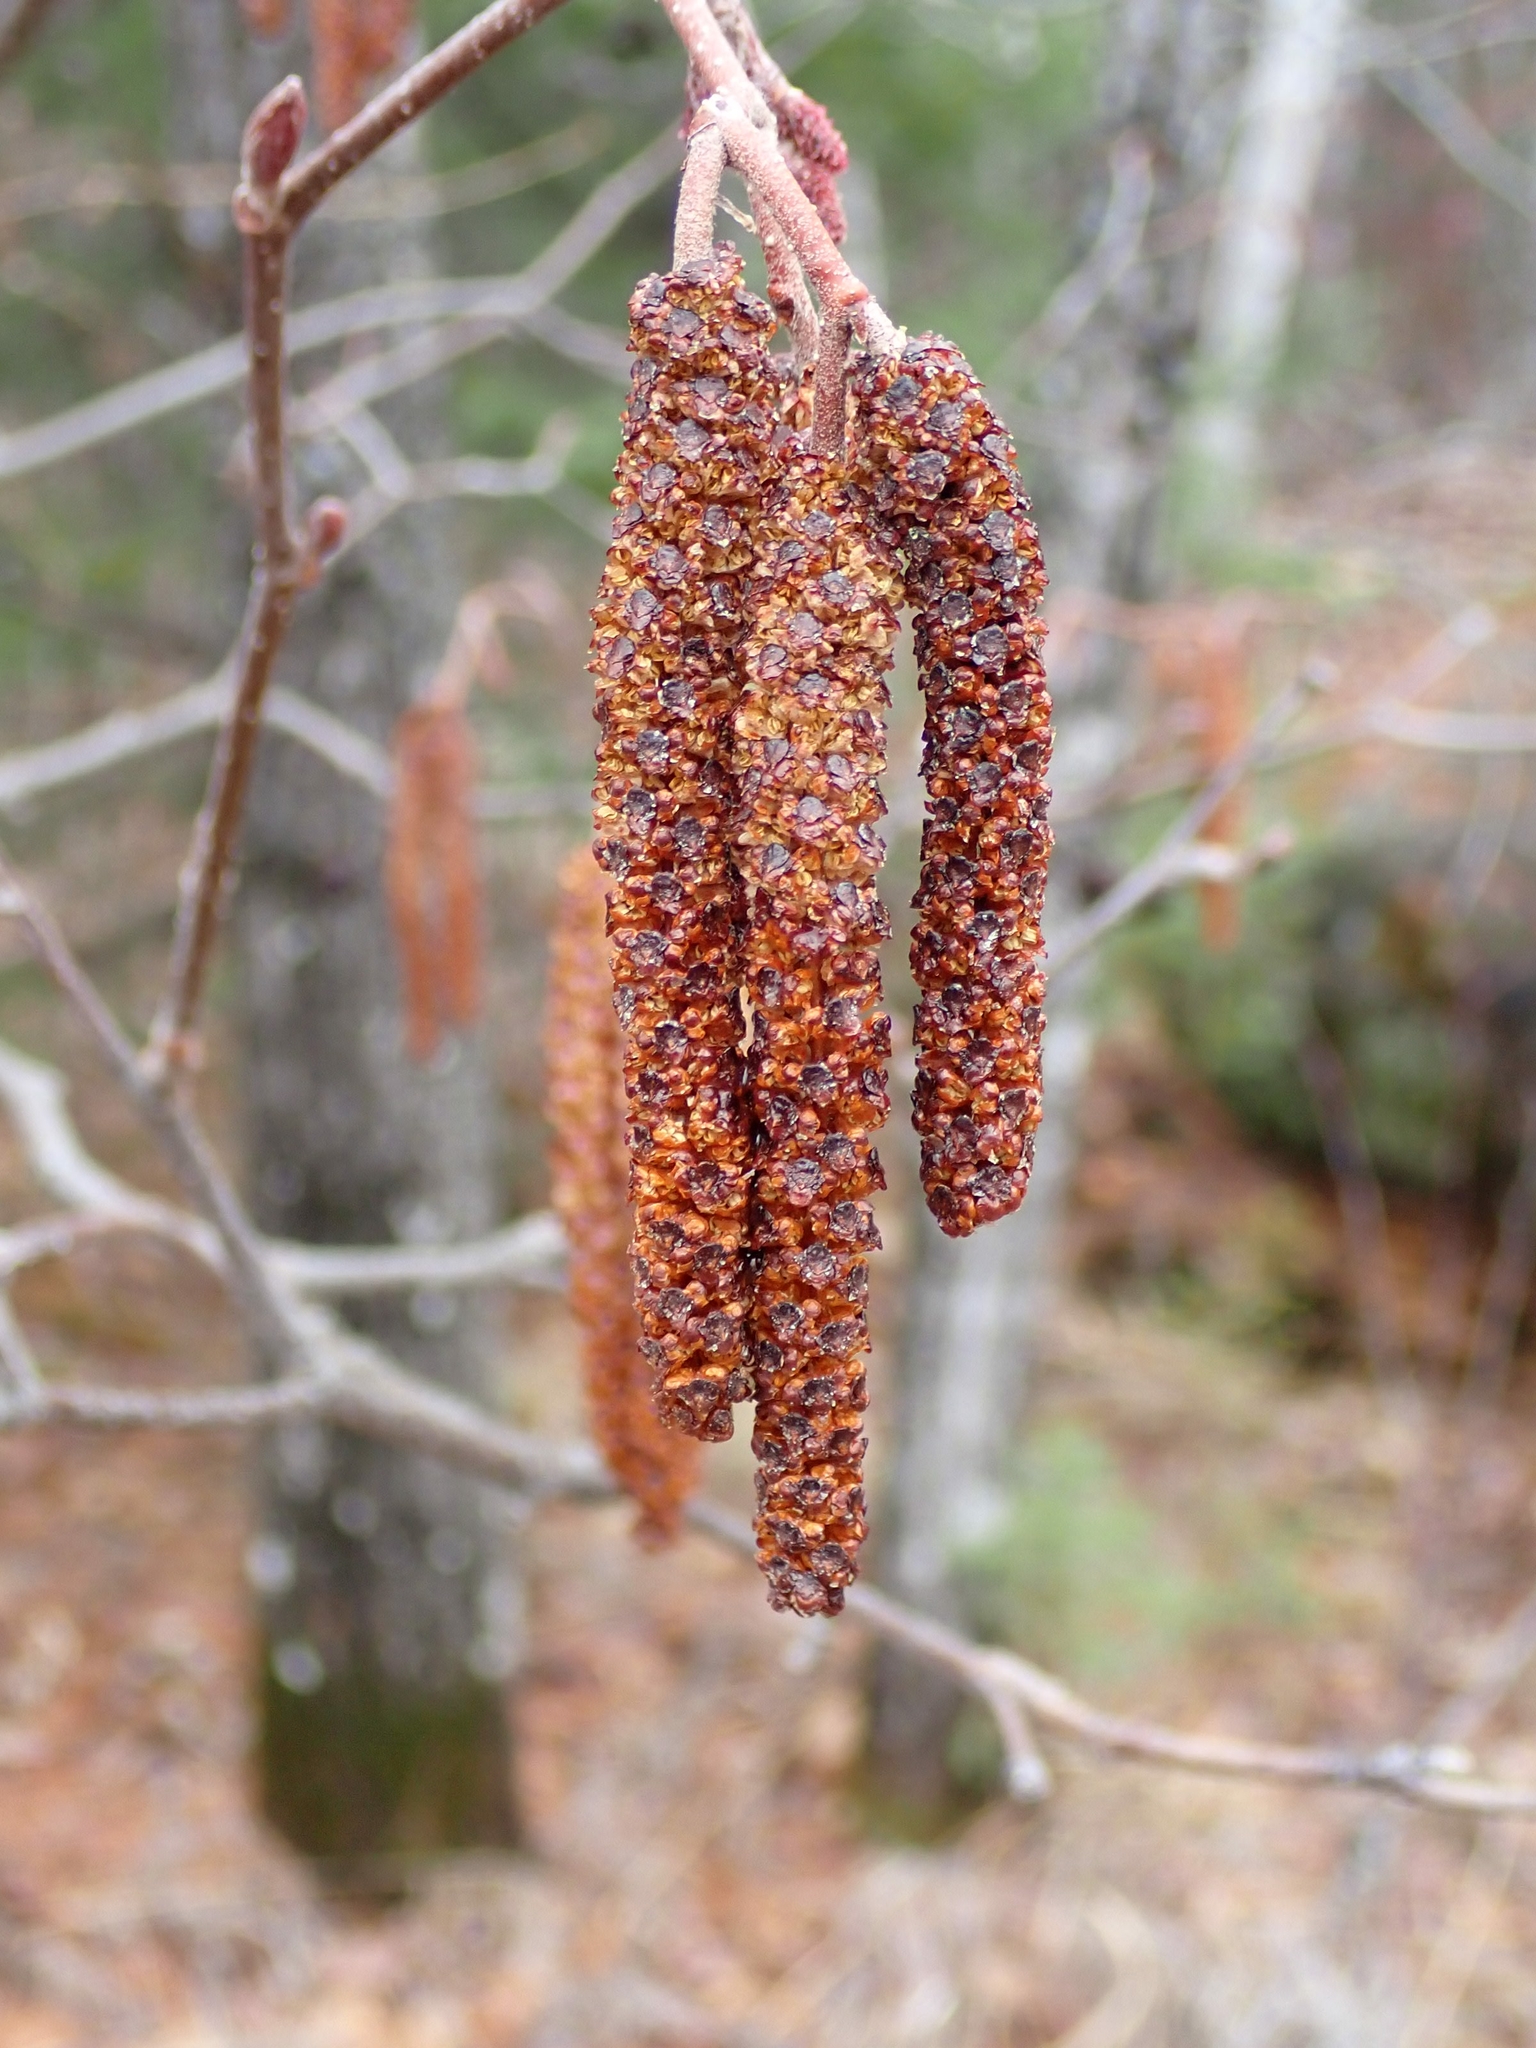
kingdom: Plantae
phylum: Tracheophyta
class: Magnoliopsida
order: Fagales
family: Betulaceae
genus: Alnus
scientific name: Alnus incana
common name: Grey alder
